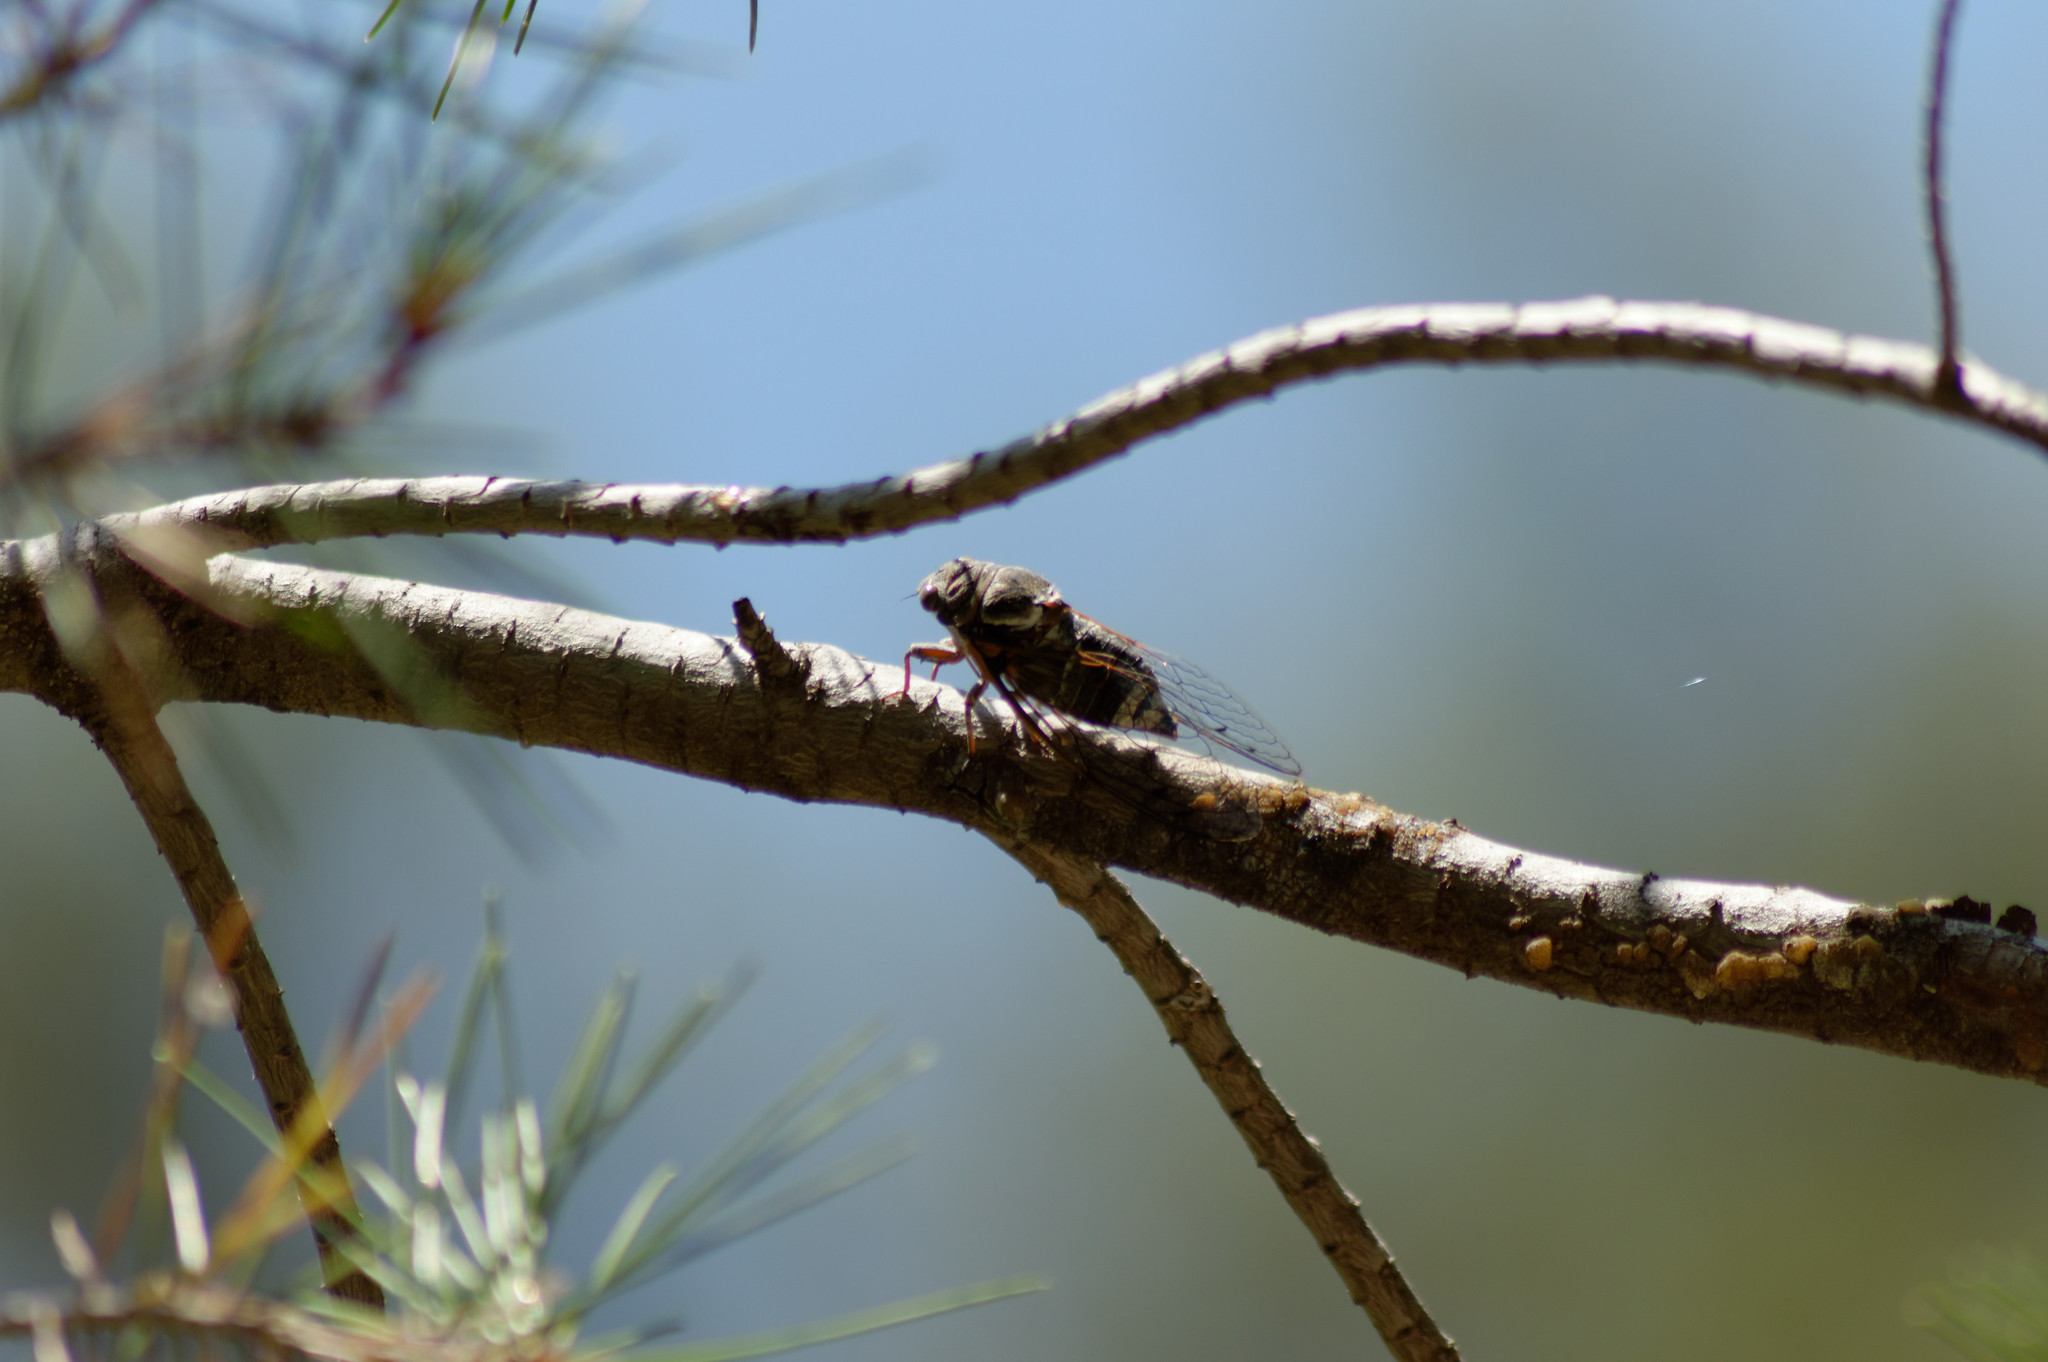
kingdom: Animalia
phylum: Arthropoda
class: Insecta
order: Hemiptera
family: Cicadidae
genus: Lyristes
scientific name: Lyristes plebejus
